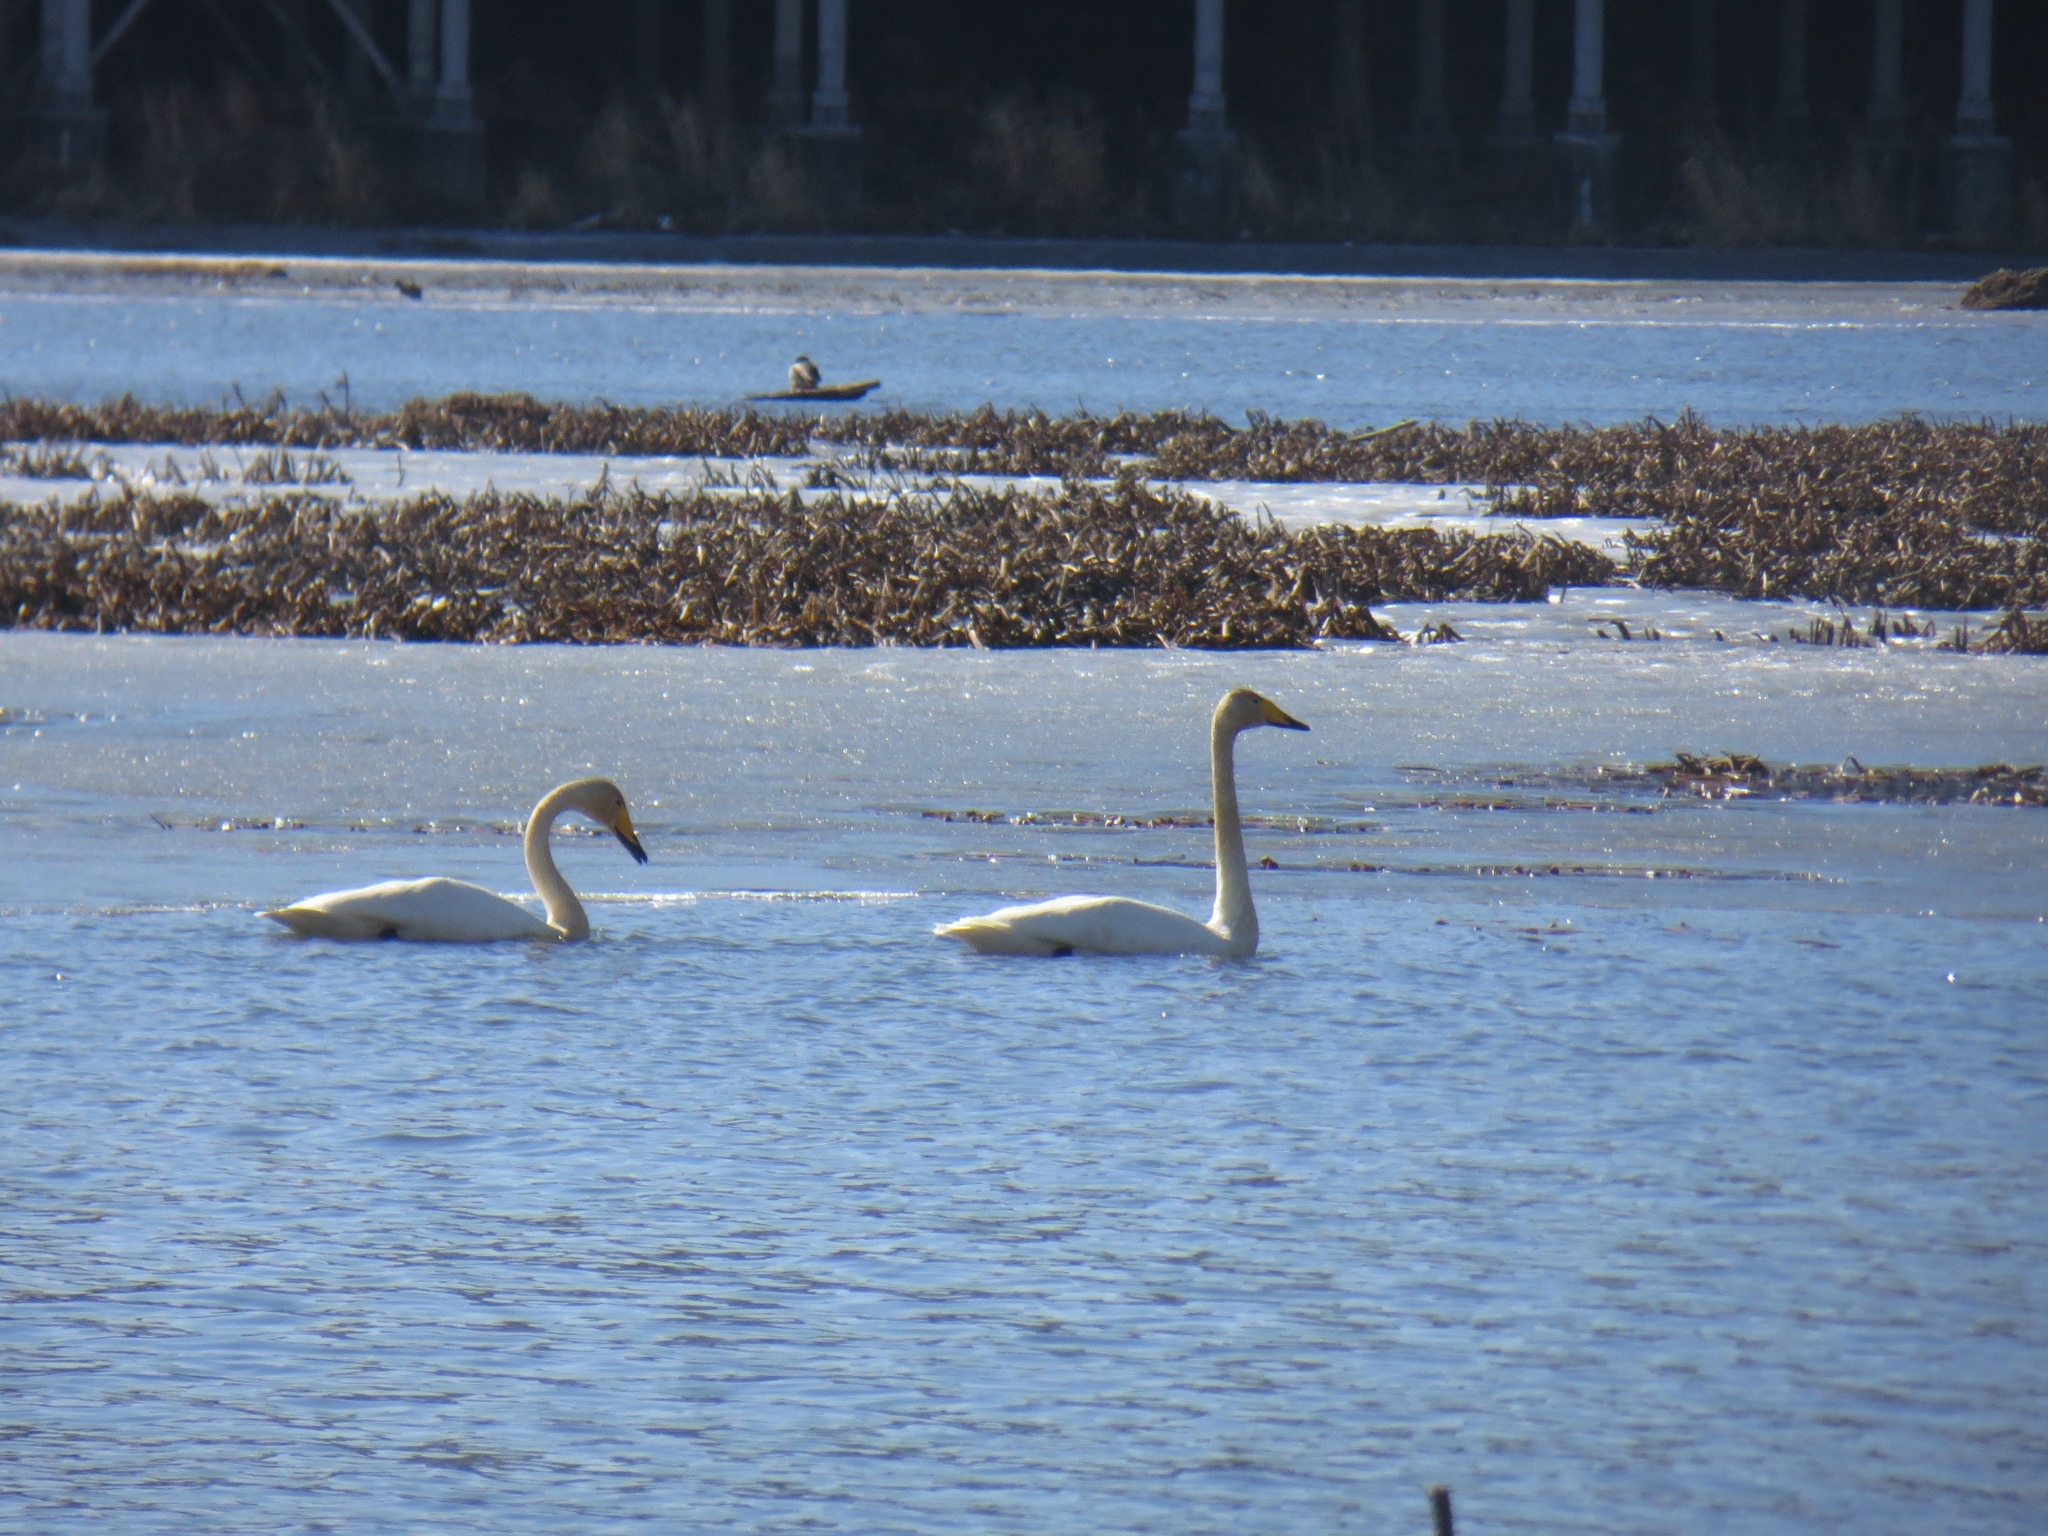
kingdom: Animalia
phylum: Chordata
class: Aves
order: Anseriformes
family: Anatidae
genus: Cygnus
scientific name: Cygnus cygnus
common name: Whooper swan
